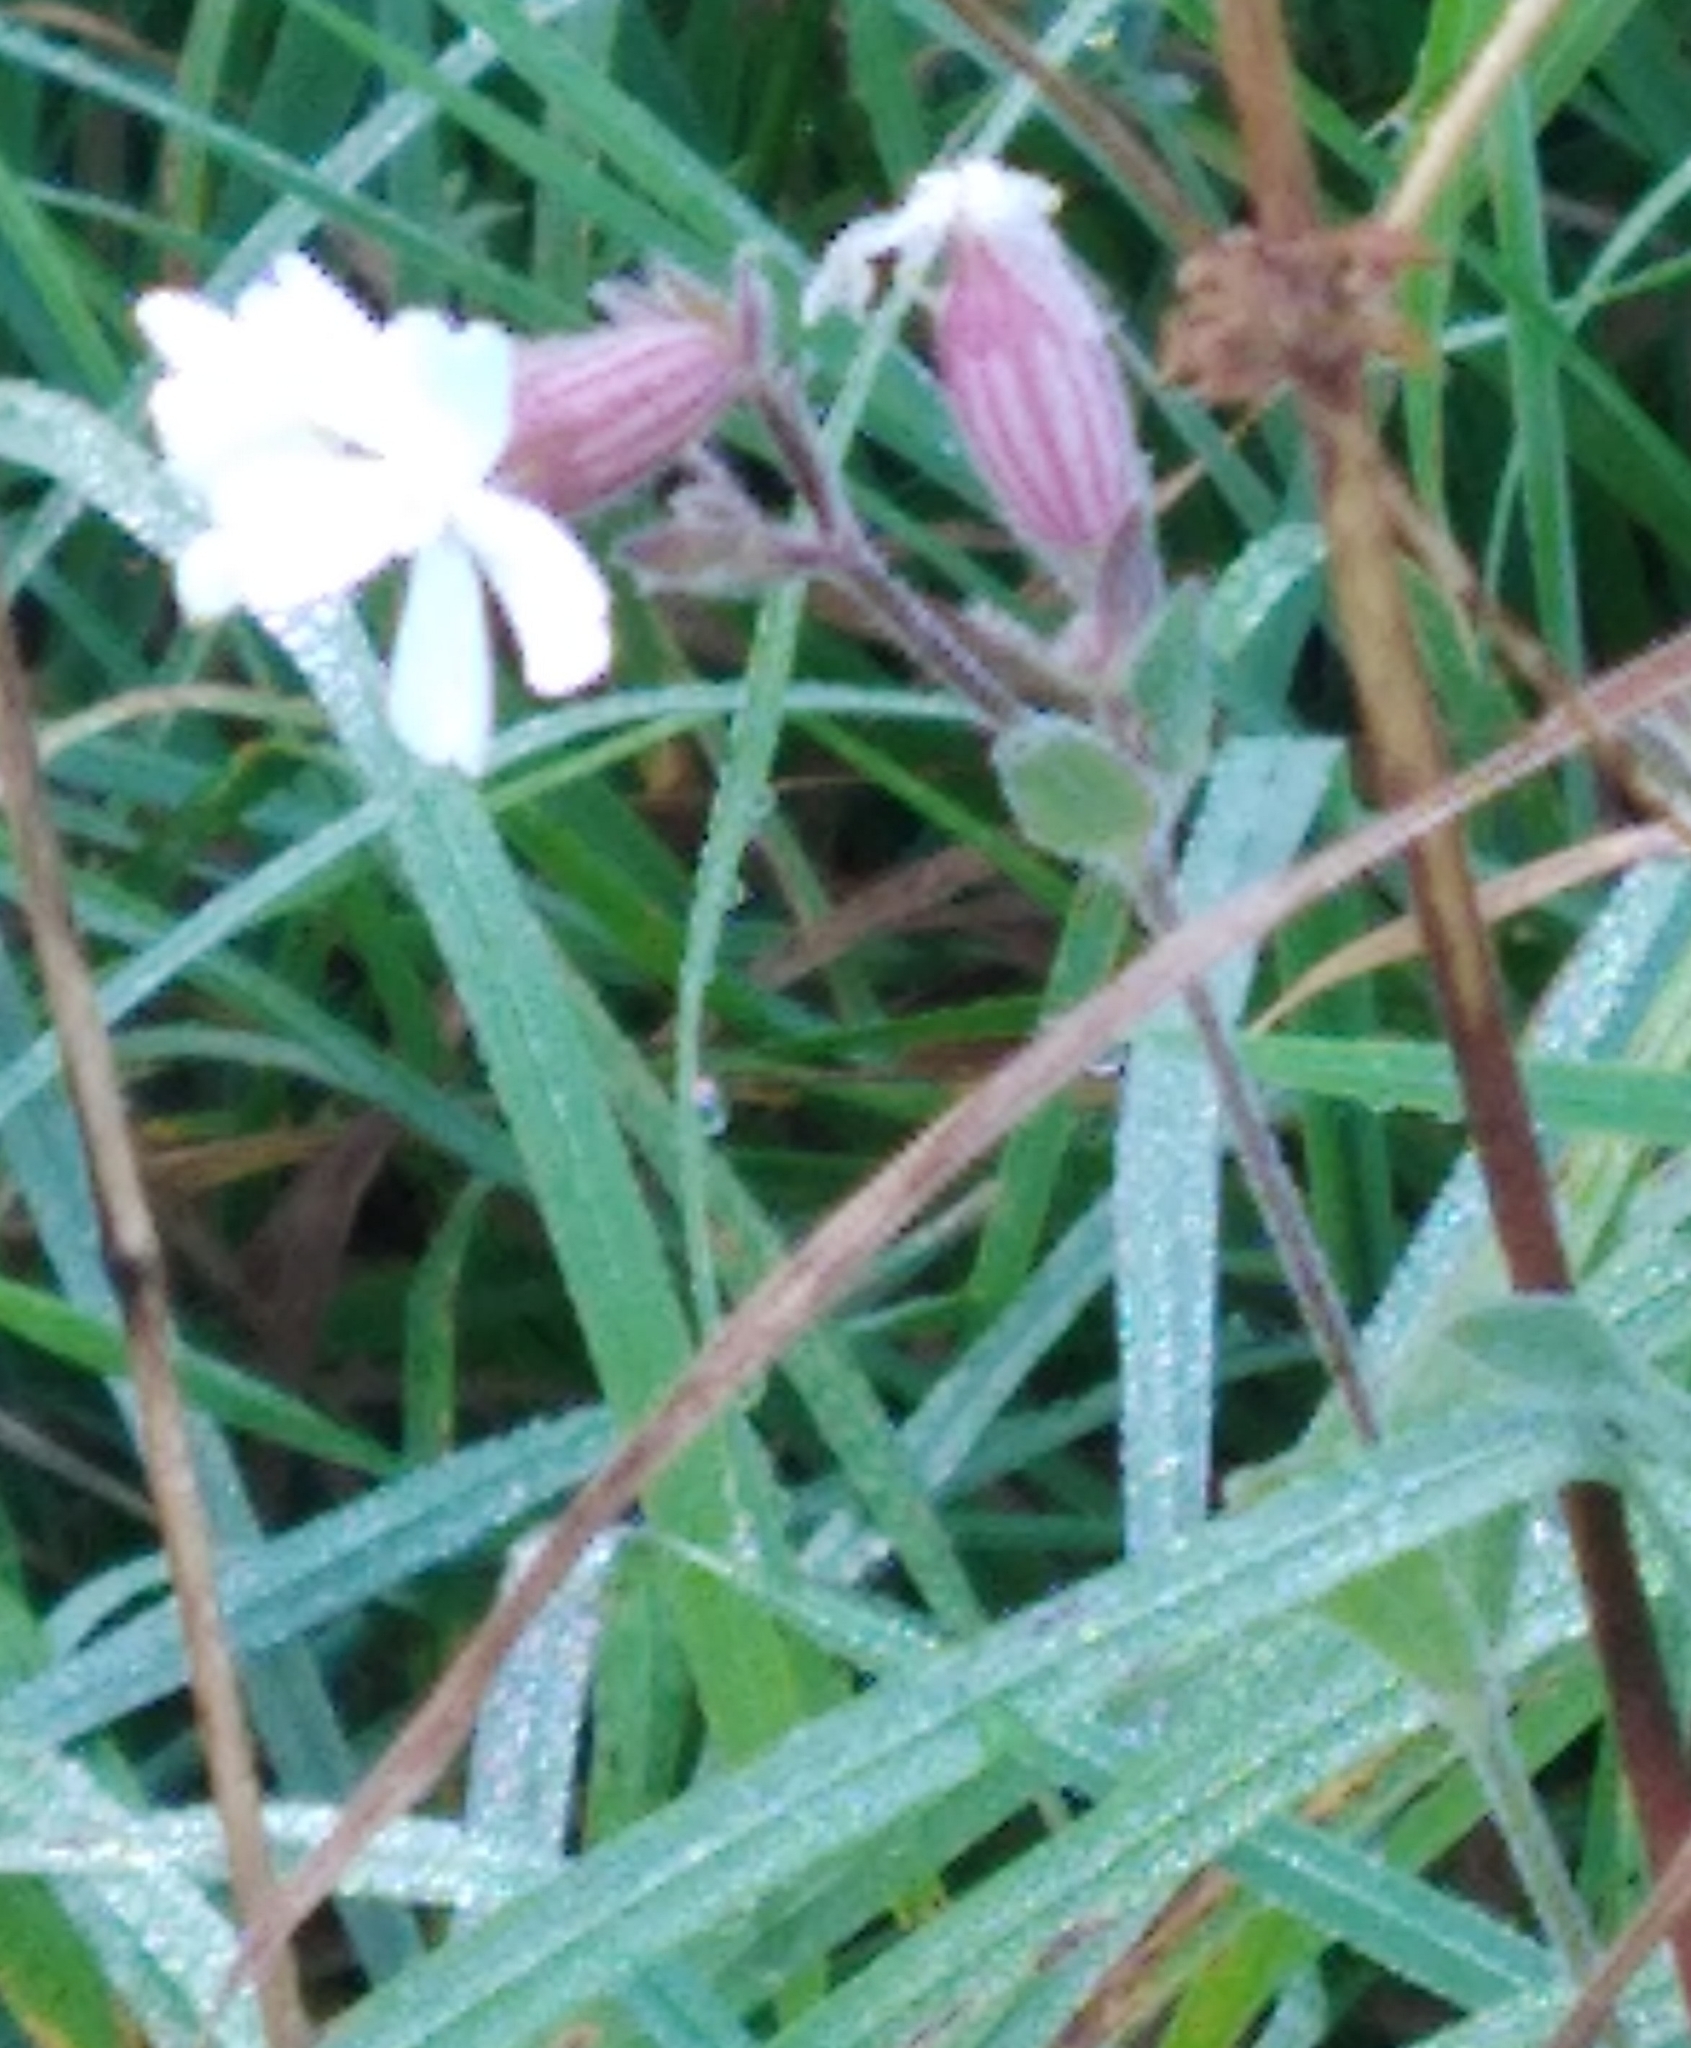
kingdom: Plantae
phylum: Tracheophyta
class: Magnoliopsida
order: Caryophyllales
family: Caryophyllaceae
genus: Silene
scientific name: Silene latifolia
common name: White campion
